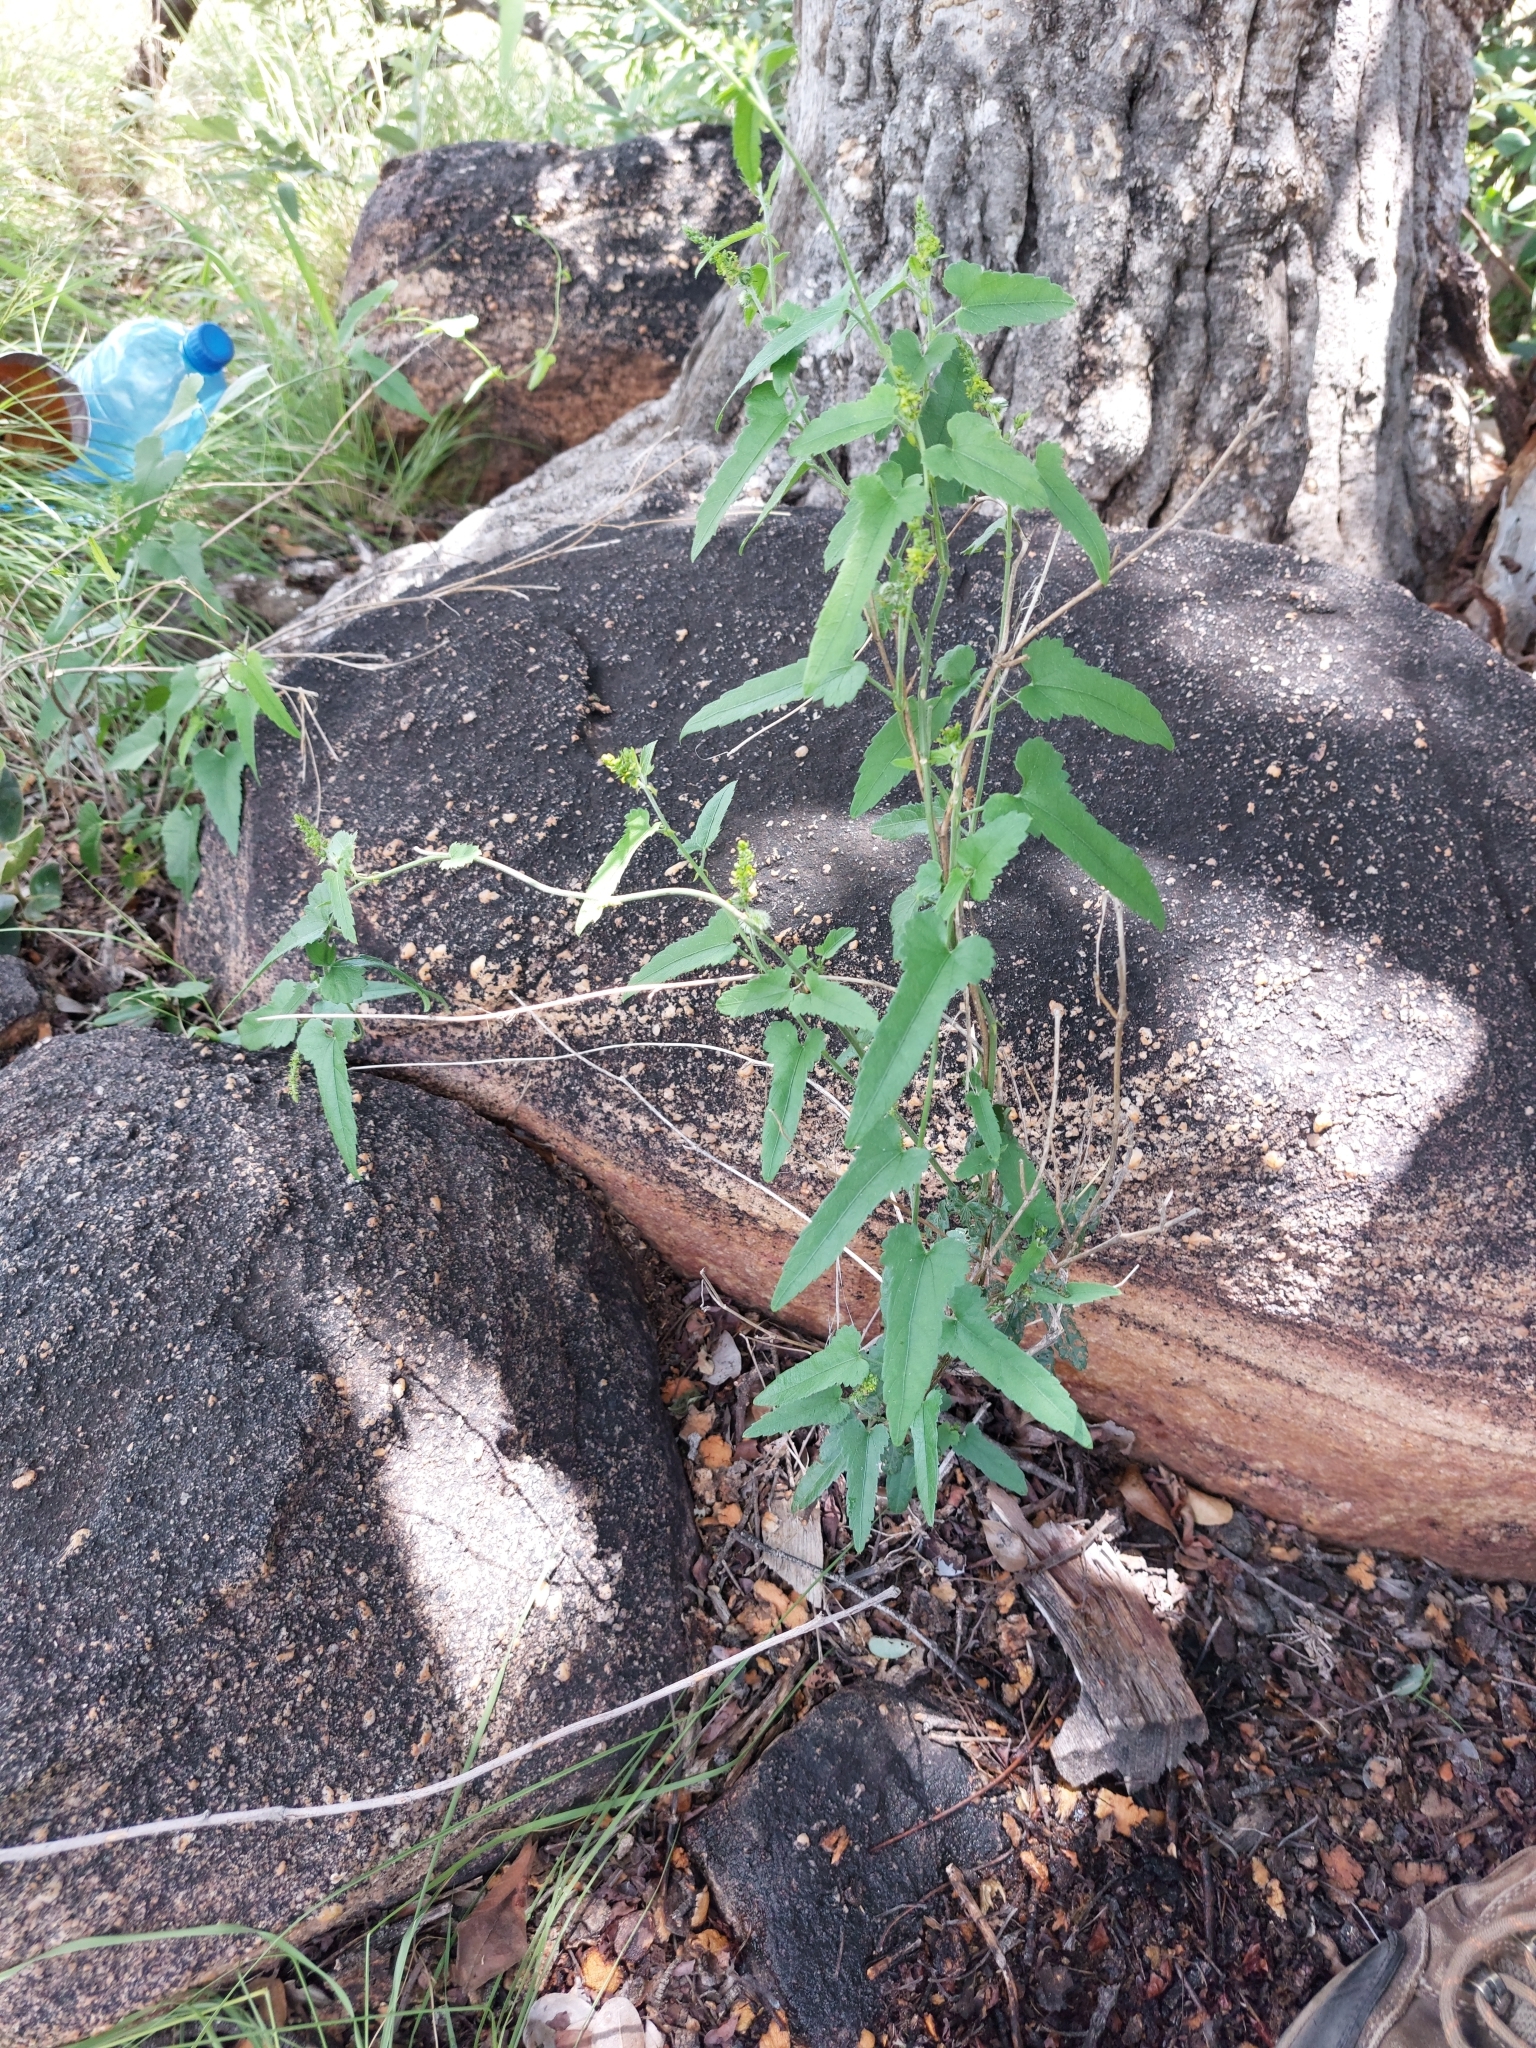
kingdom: Plantae
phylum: Tracheophyta
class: Magnoliopsida
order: Malpighiales
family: Euphorbiaceae
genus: Tragia
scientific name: Tragia dioica
